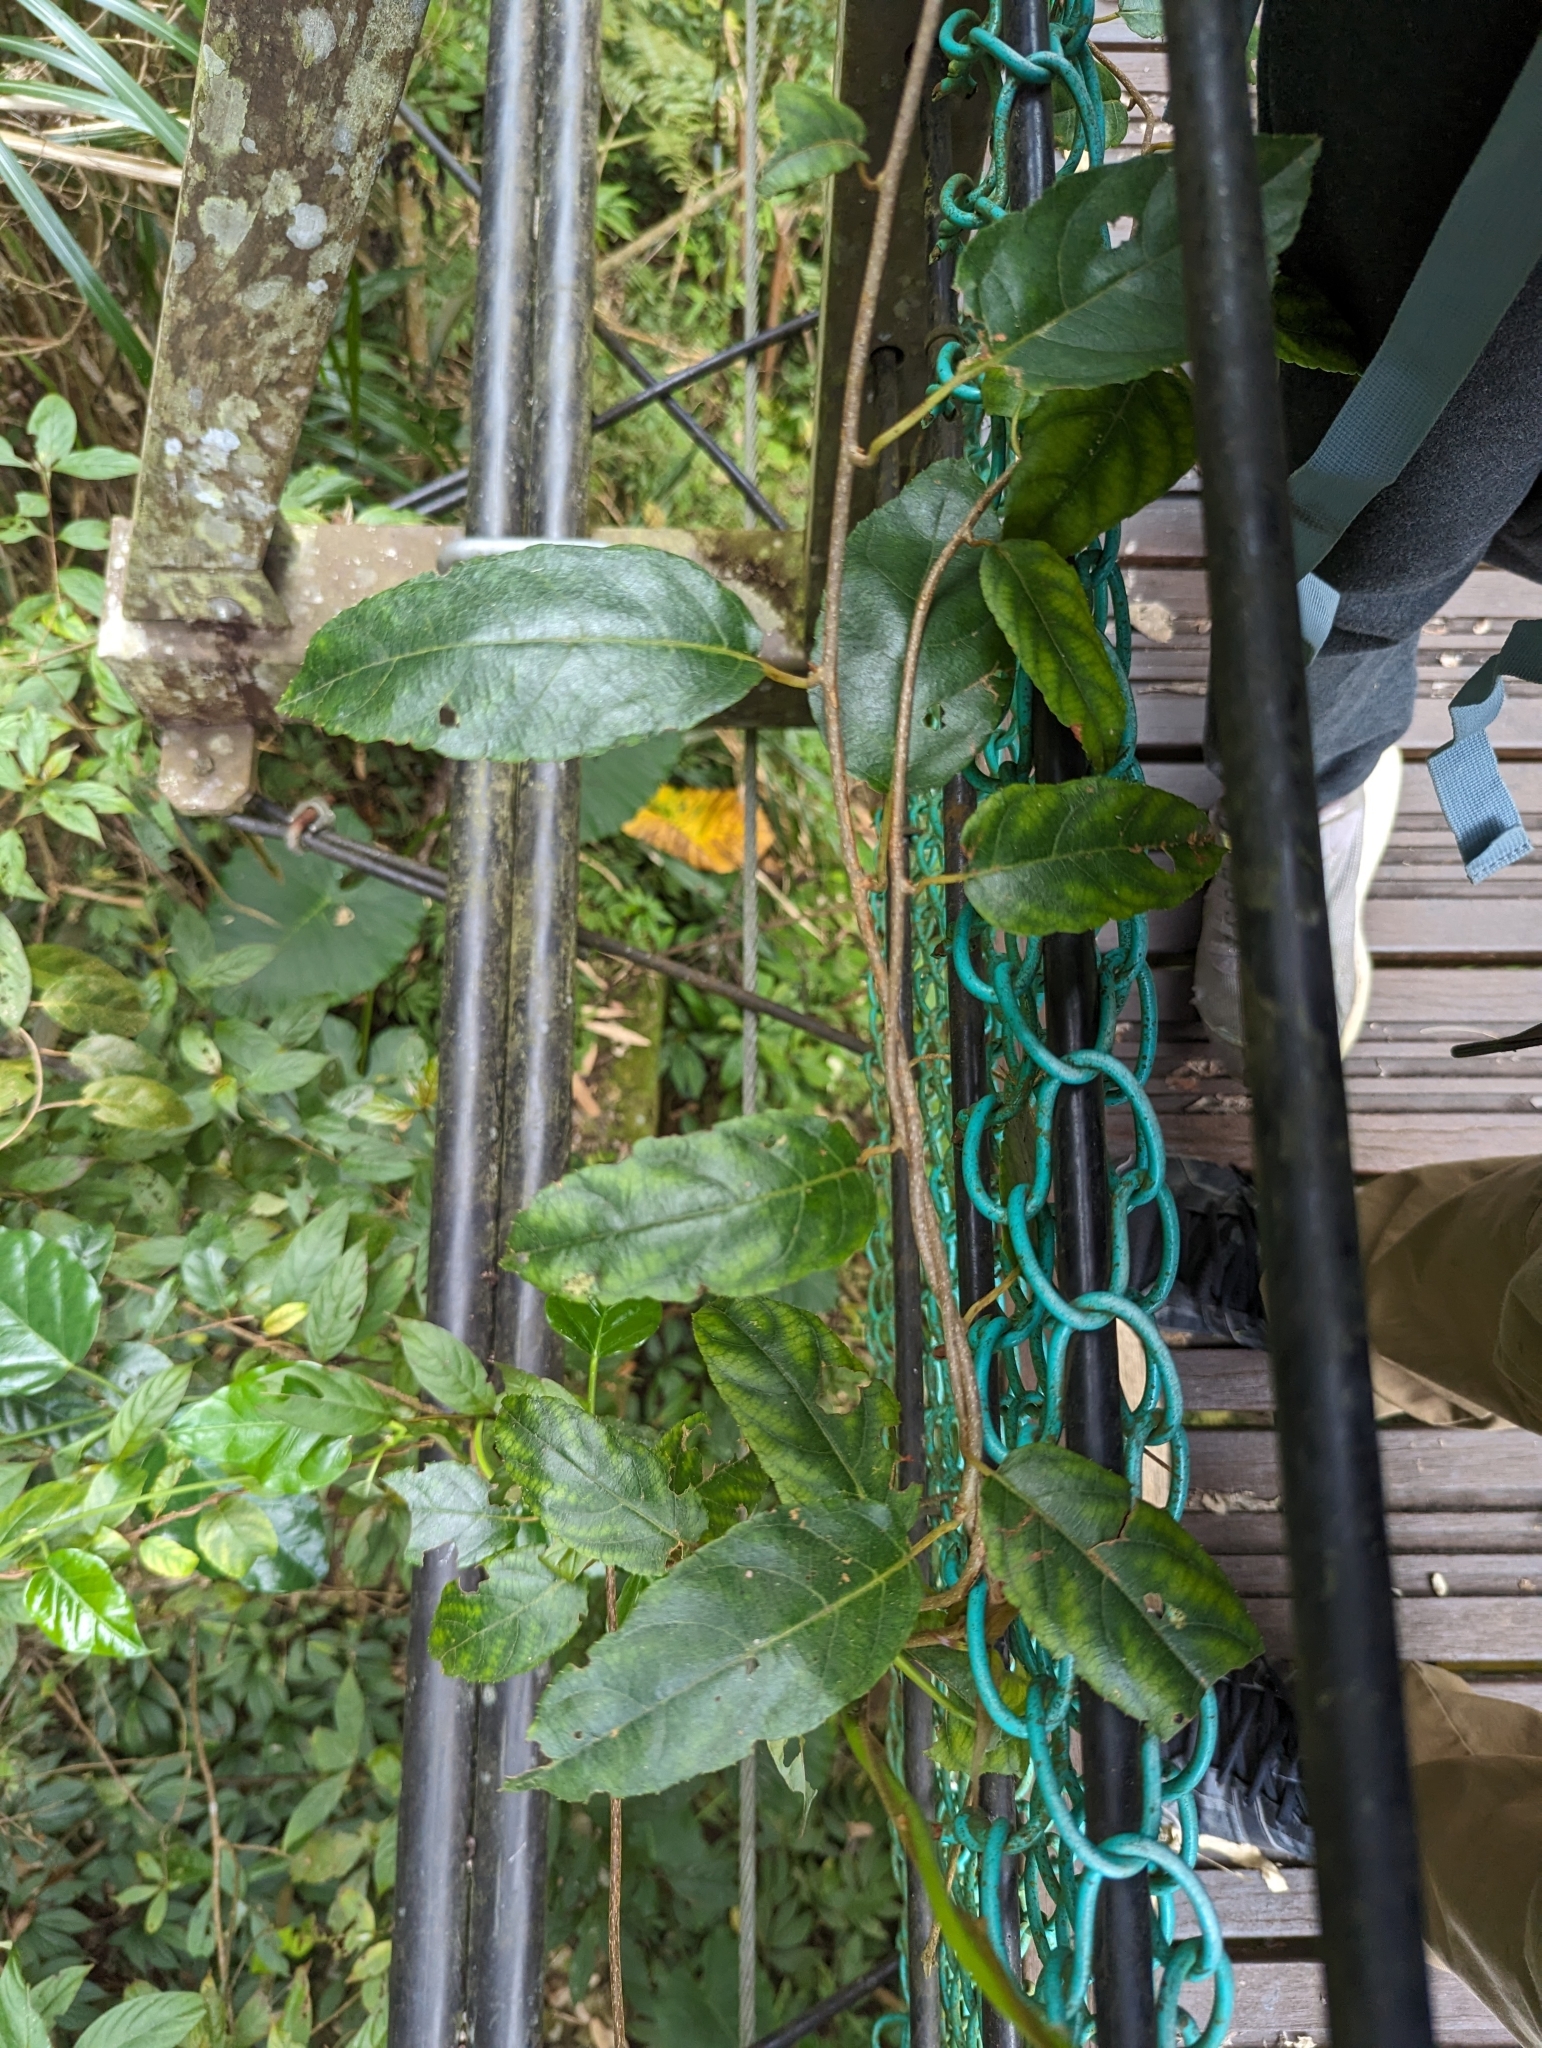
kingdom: Plantae
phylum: Tracheophyta
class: Magnoliopsida
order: Ericales
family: Actinidiaceae
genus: Actinidia
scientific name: Actinidia rufa
